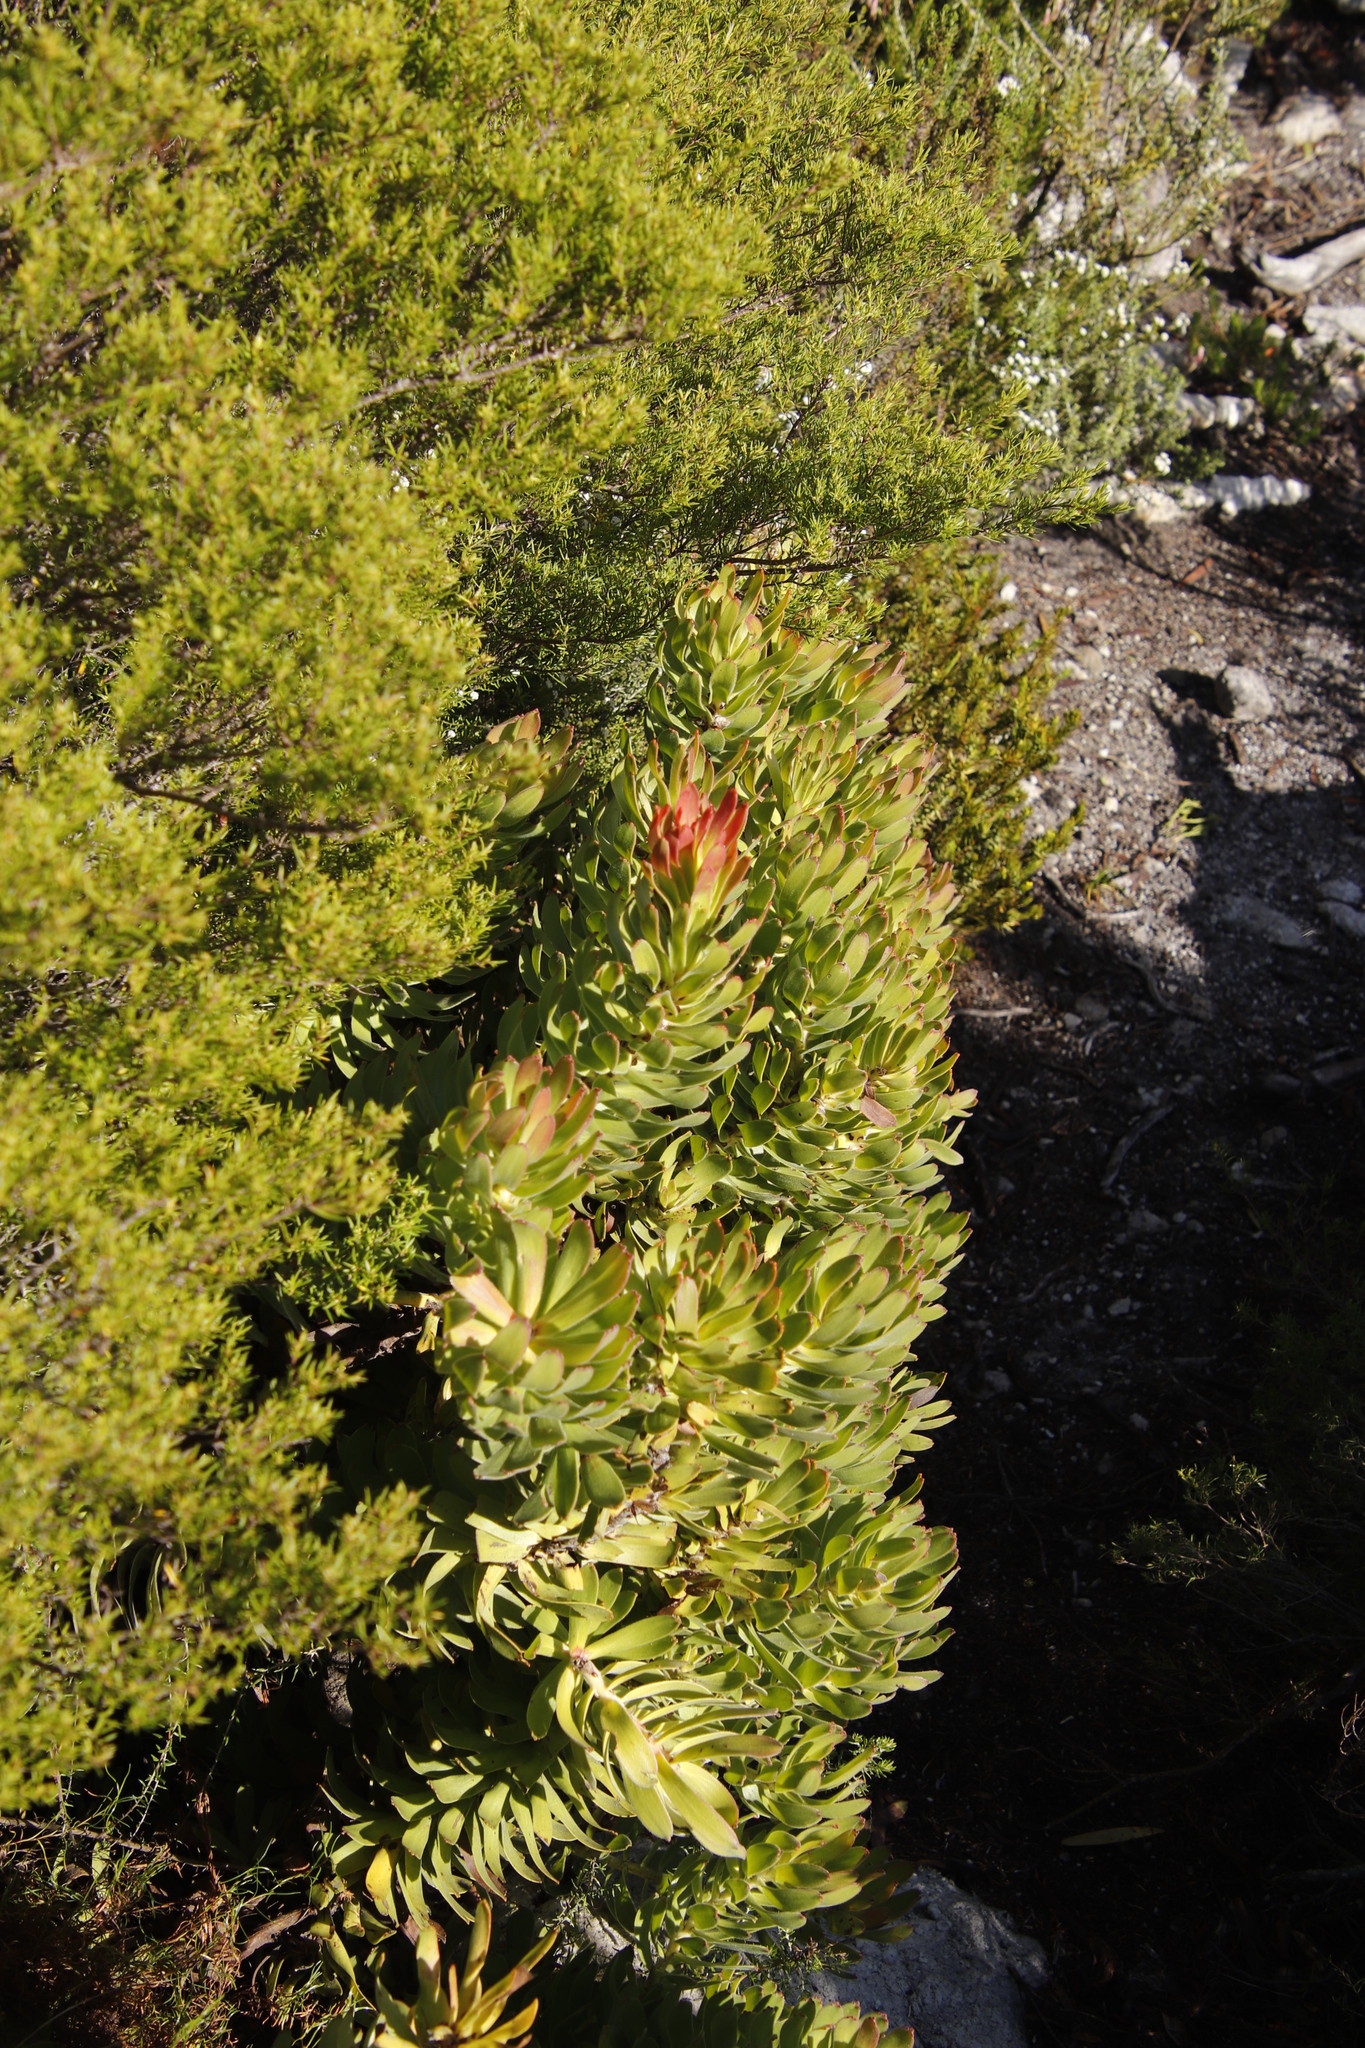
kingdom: Plantae
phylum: Tracheophyta
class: Magnoliopsida
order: Proteales
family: Proteaceae
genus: Mimetes
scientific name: Mimetes cucullatus
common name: Common pagoda
